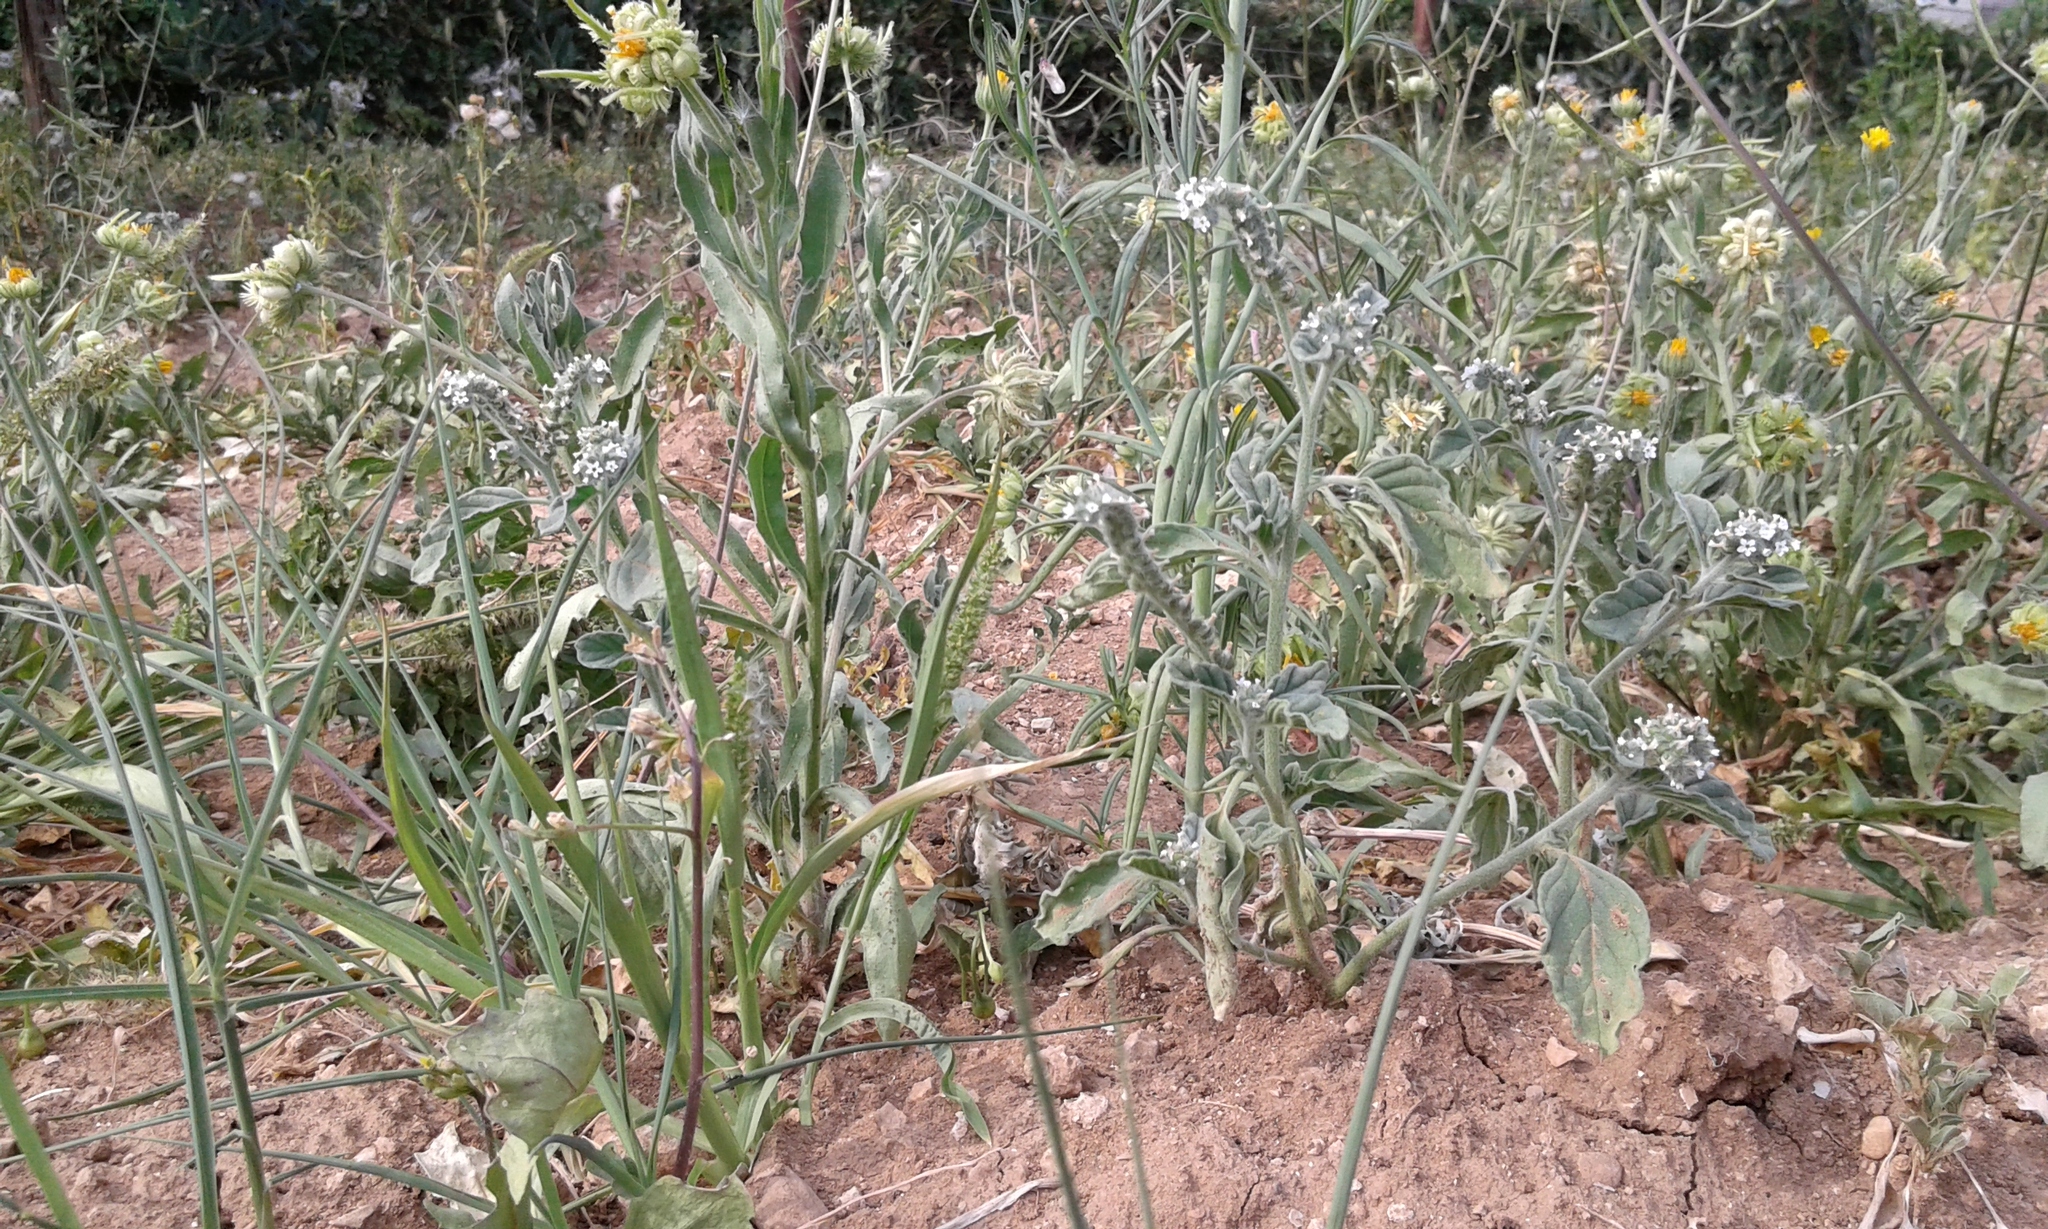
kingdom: Plantae
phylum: Tracheophyta
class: Magnoliopsida
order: Boraginales
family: Heliotropiaceae
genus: Heliotropium
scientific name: Heliotropium europaeum
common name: European heliotrope
